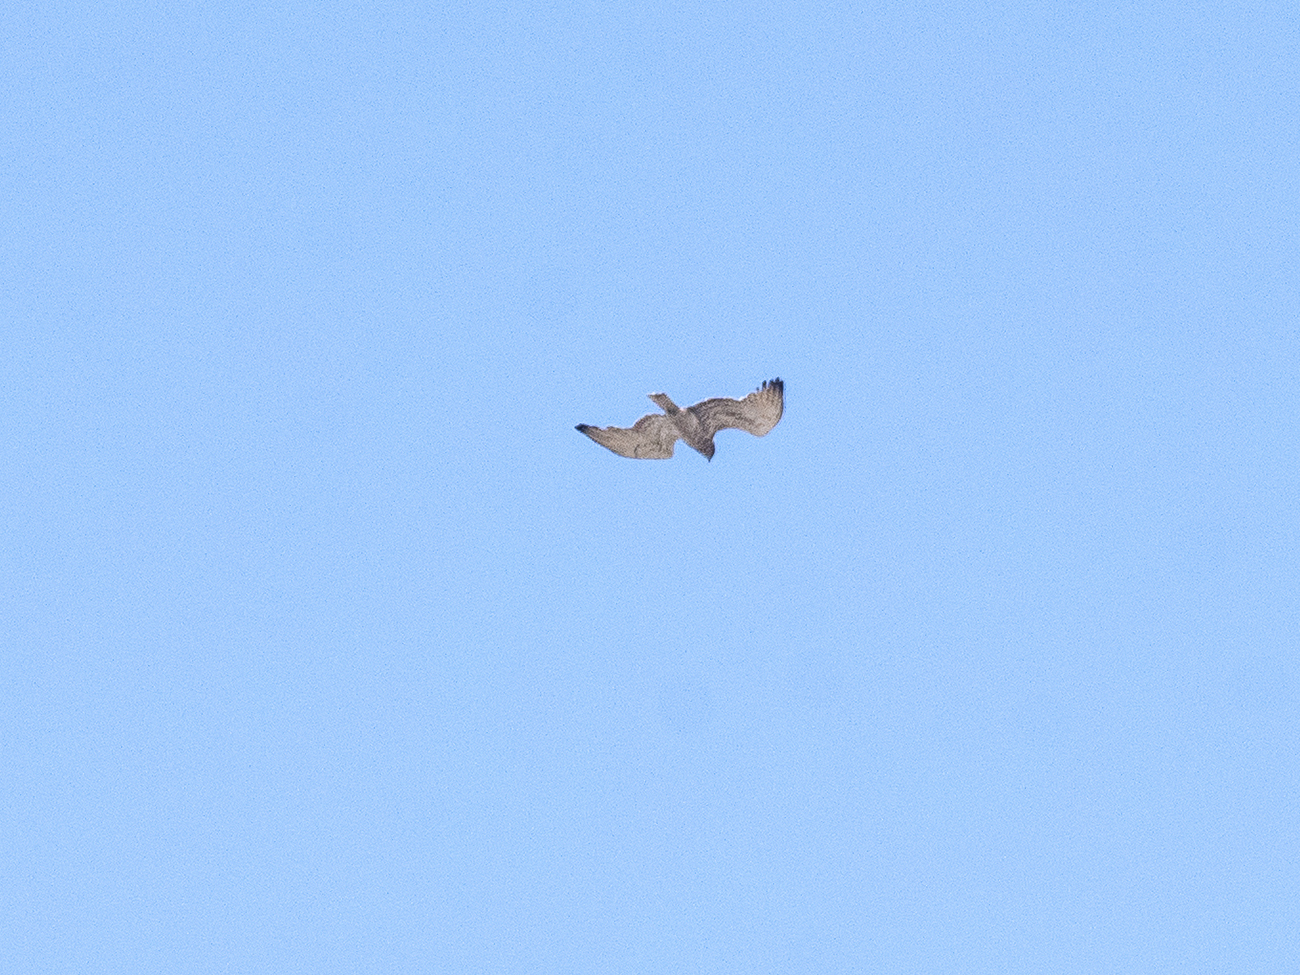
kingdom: Animalia
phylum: Chordata
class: Aves
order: Accipitriformes
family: Accipitridae
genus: Circaetus
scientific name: Circaetus gallicus
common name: Short-toed snake eagle
